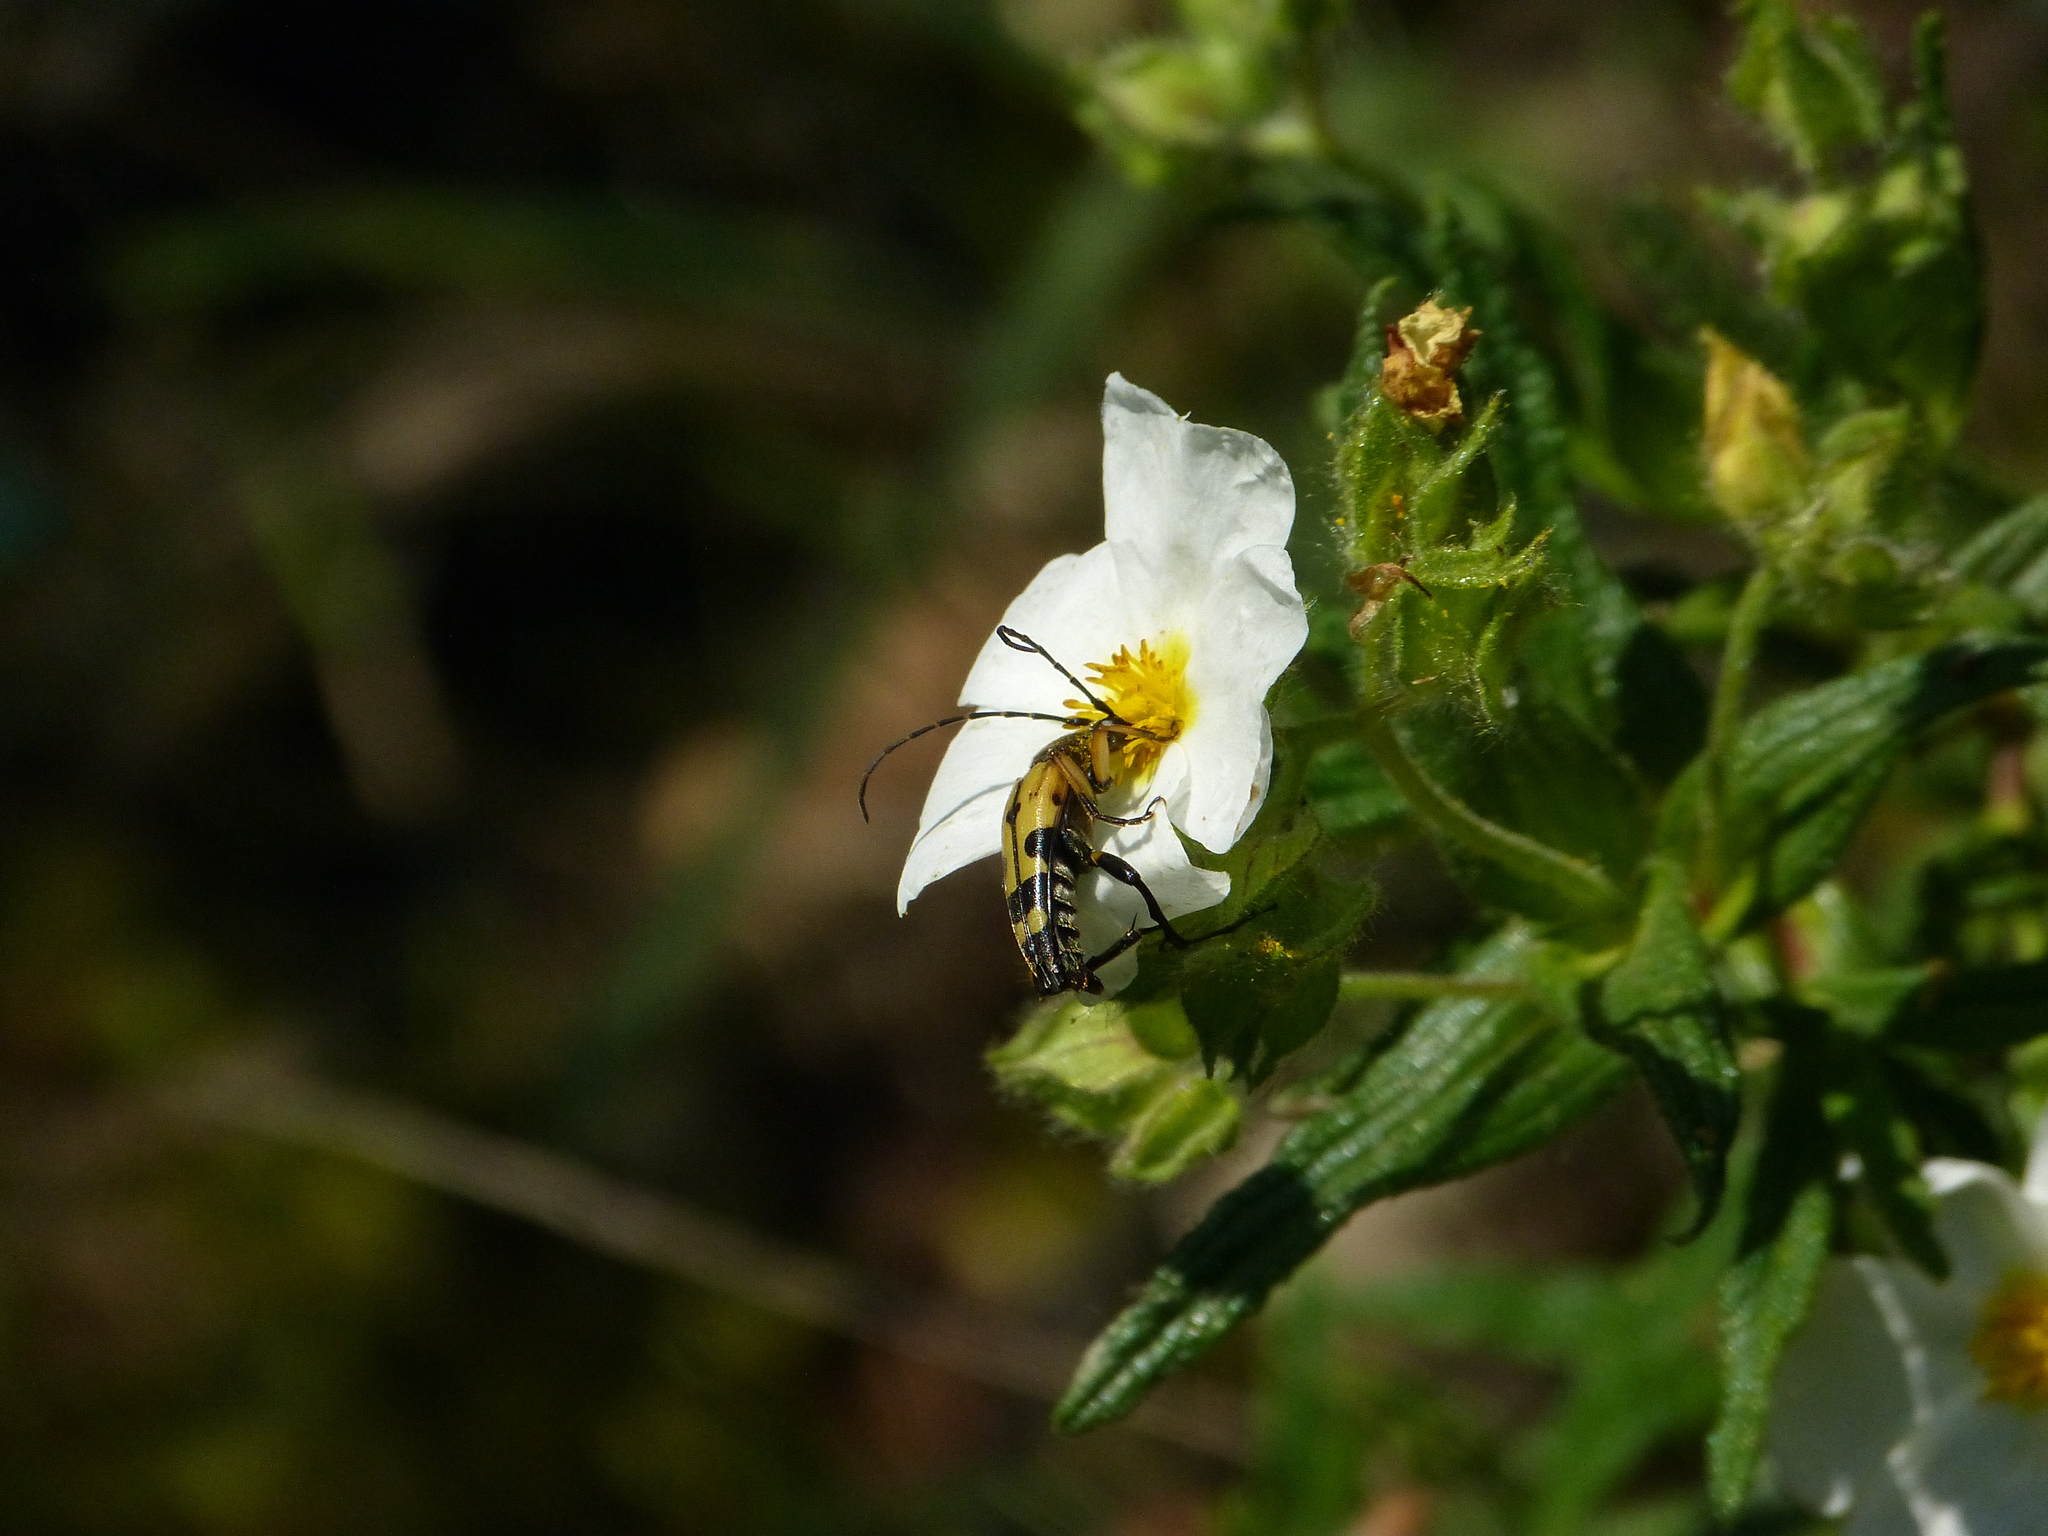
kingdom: Animalia
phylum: Arthropoda
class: Insecta
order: Coleoptera
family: Cerambycidae
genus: Rutpela
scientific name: Rutpela maculata
